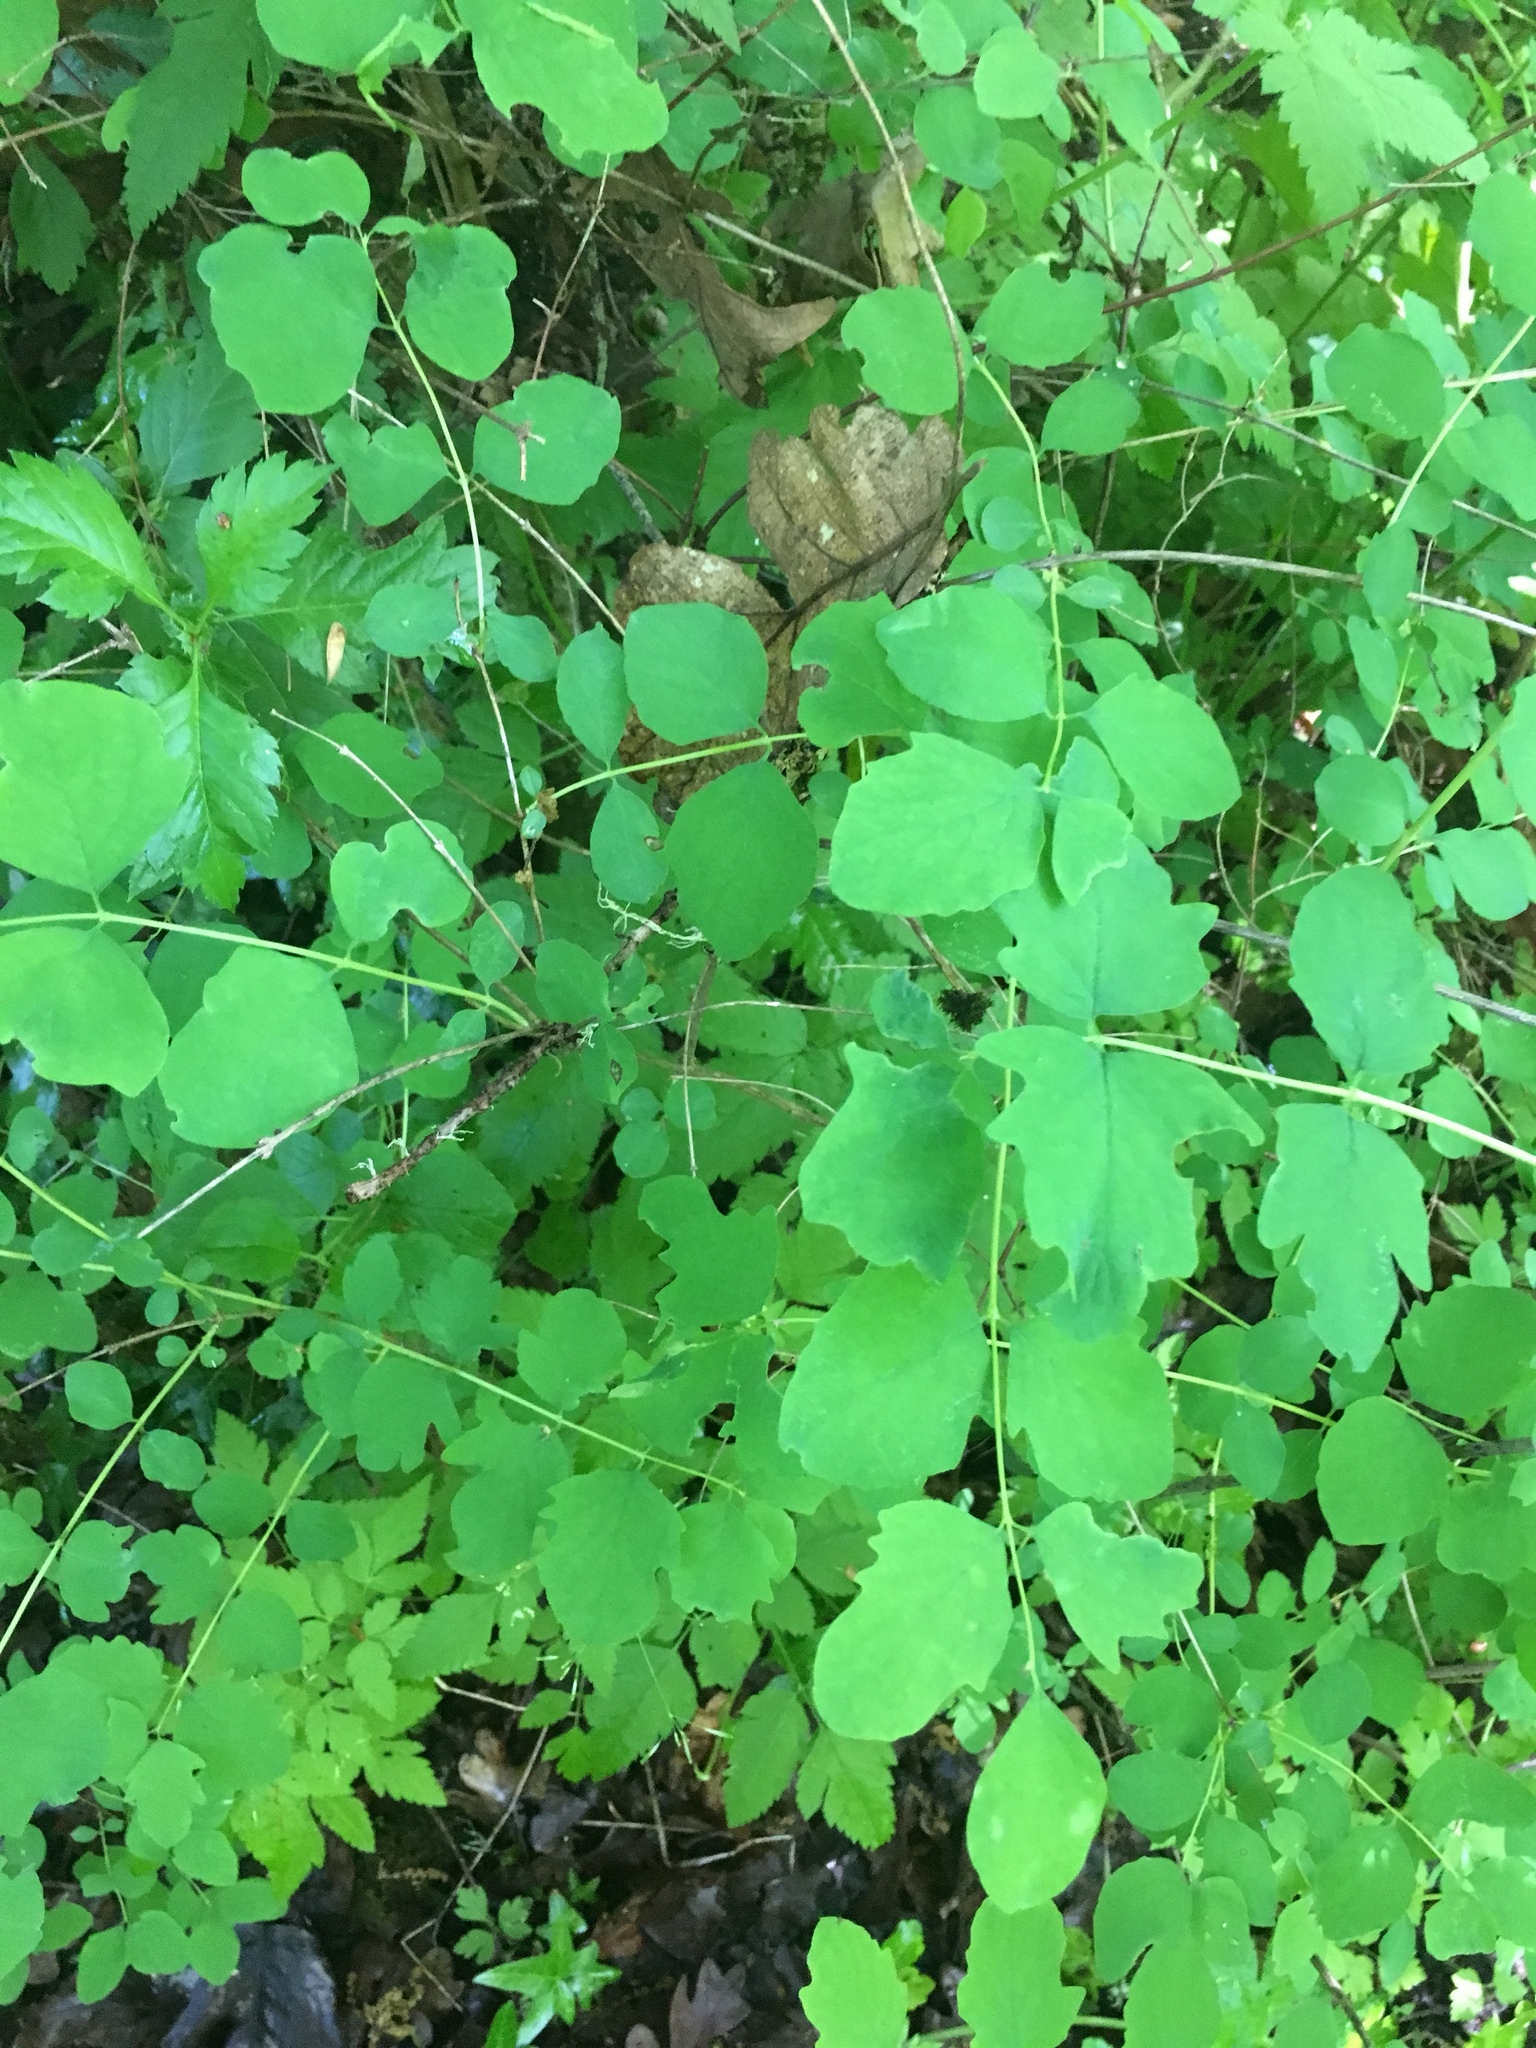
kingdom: Plantae
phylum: Tracheophyta
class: Magnoliopsida
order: Dipsacales
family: Caprifoliaceae
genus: Symphoricarpos
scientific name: Symphoricarpos albus
